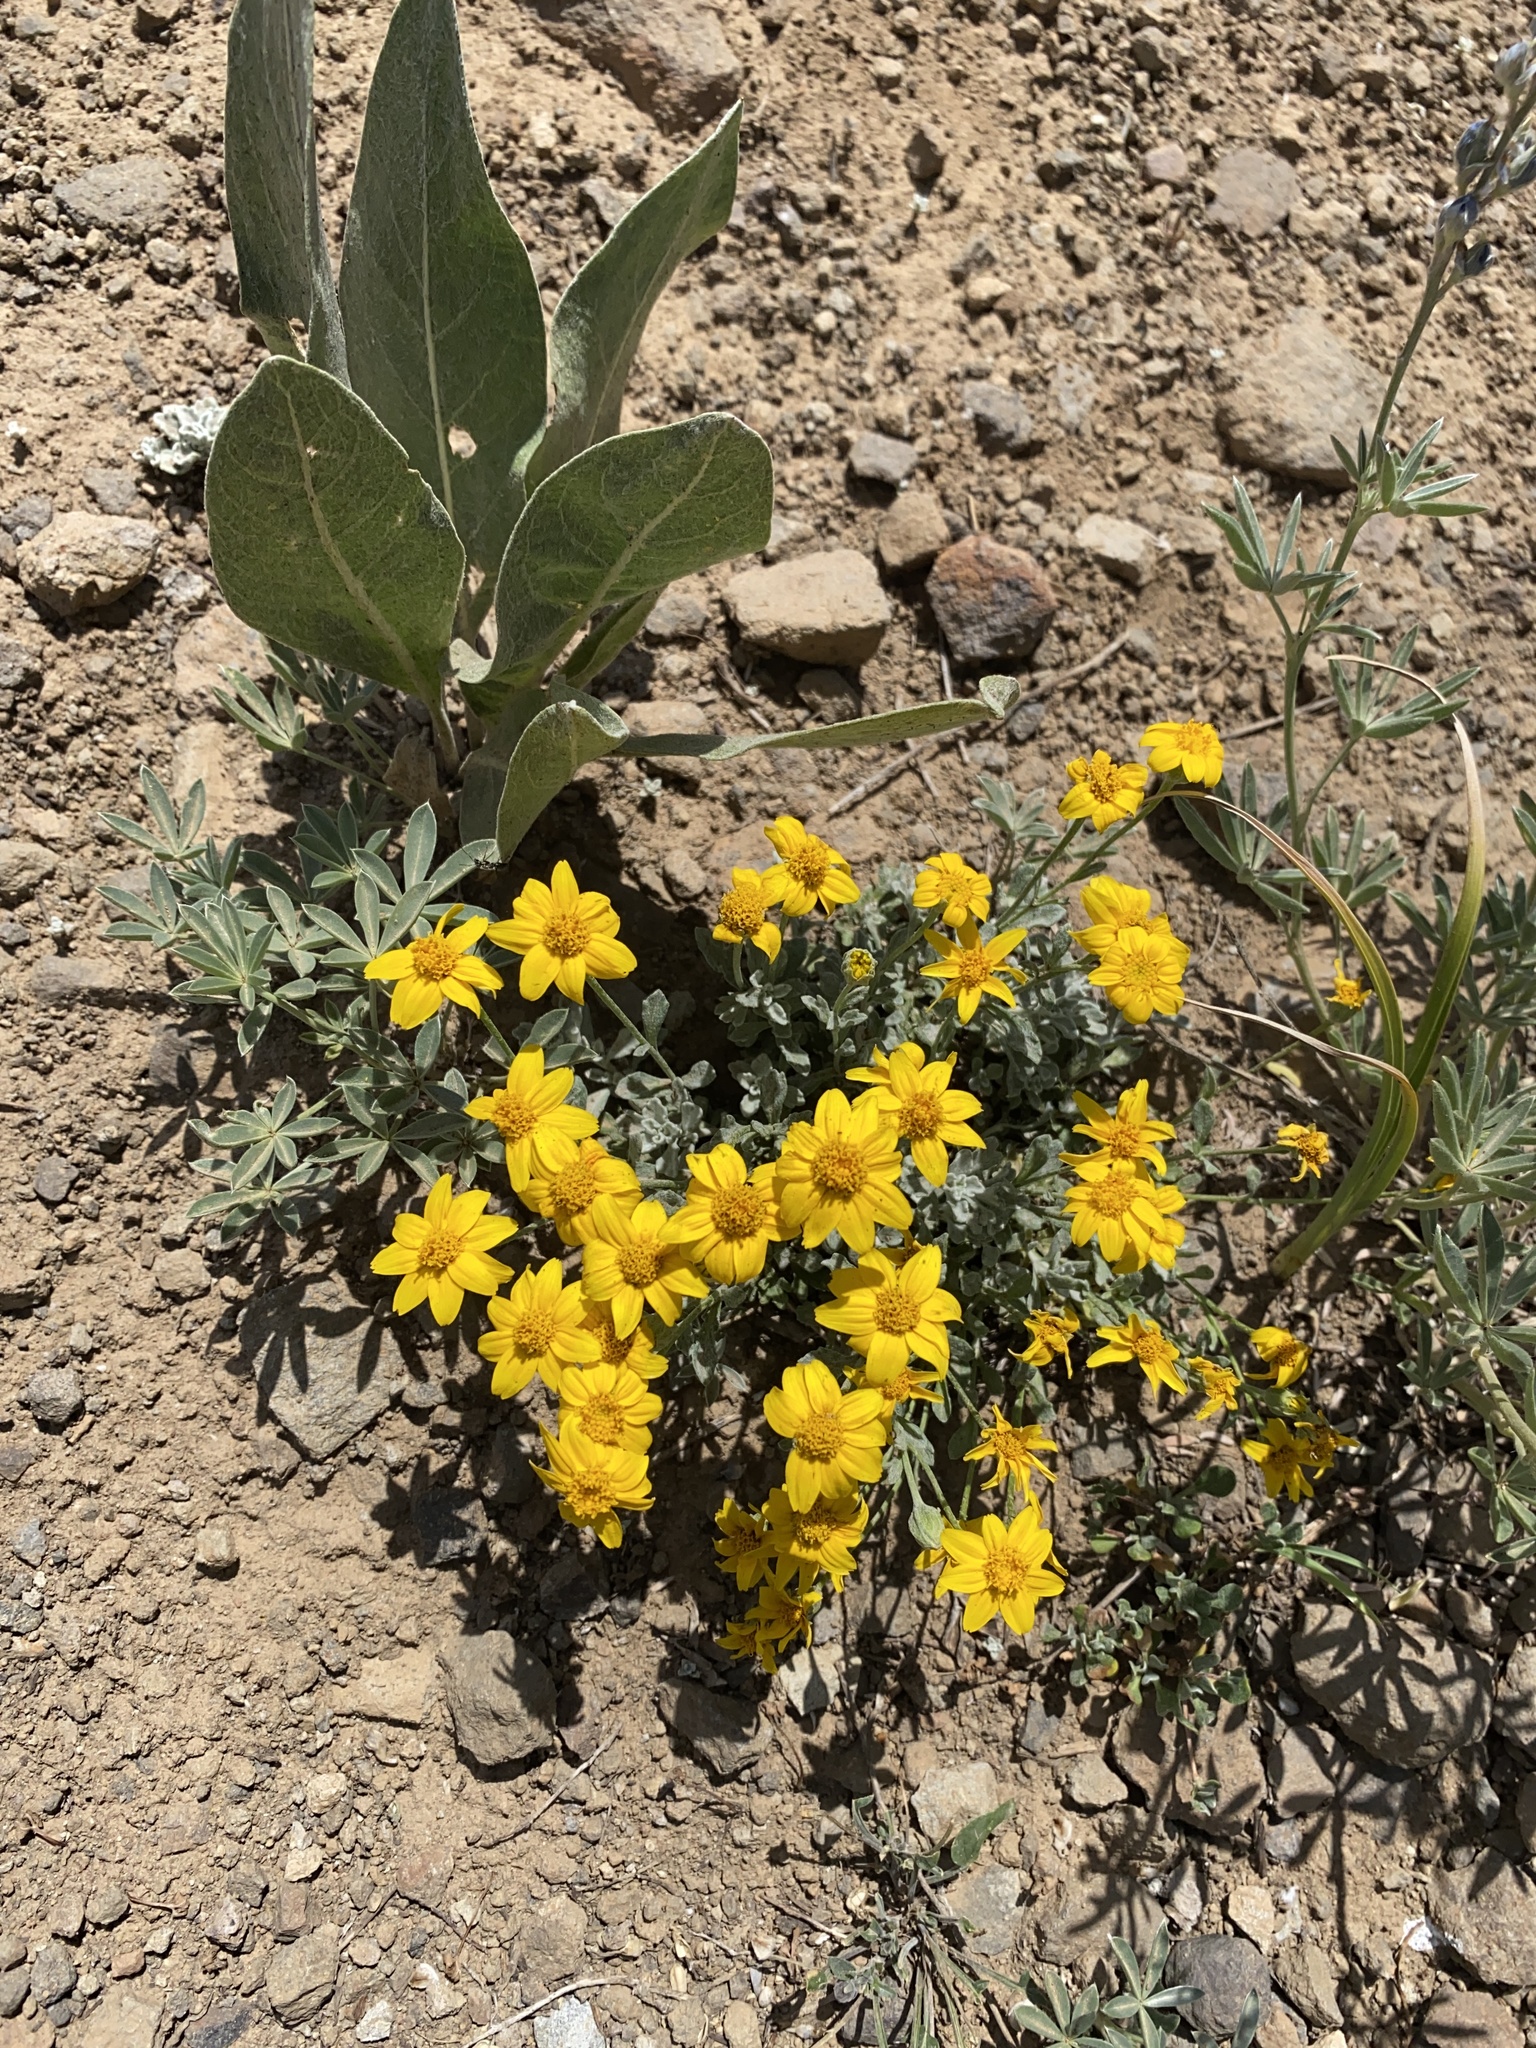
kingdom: Plantae
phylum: Tracheophyta
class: Magnoliopsida
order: Asterales
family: Asteraceae
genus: Eriophyllum
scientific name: Eriophyllum lanatum
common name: Common woolly-sunflower
